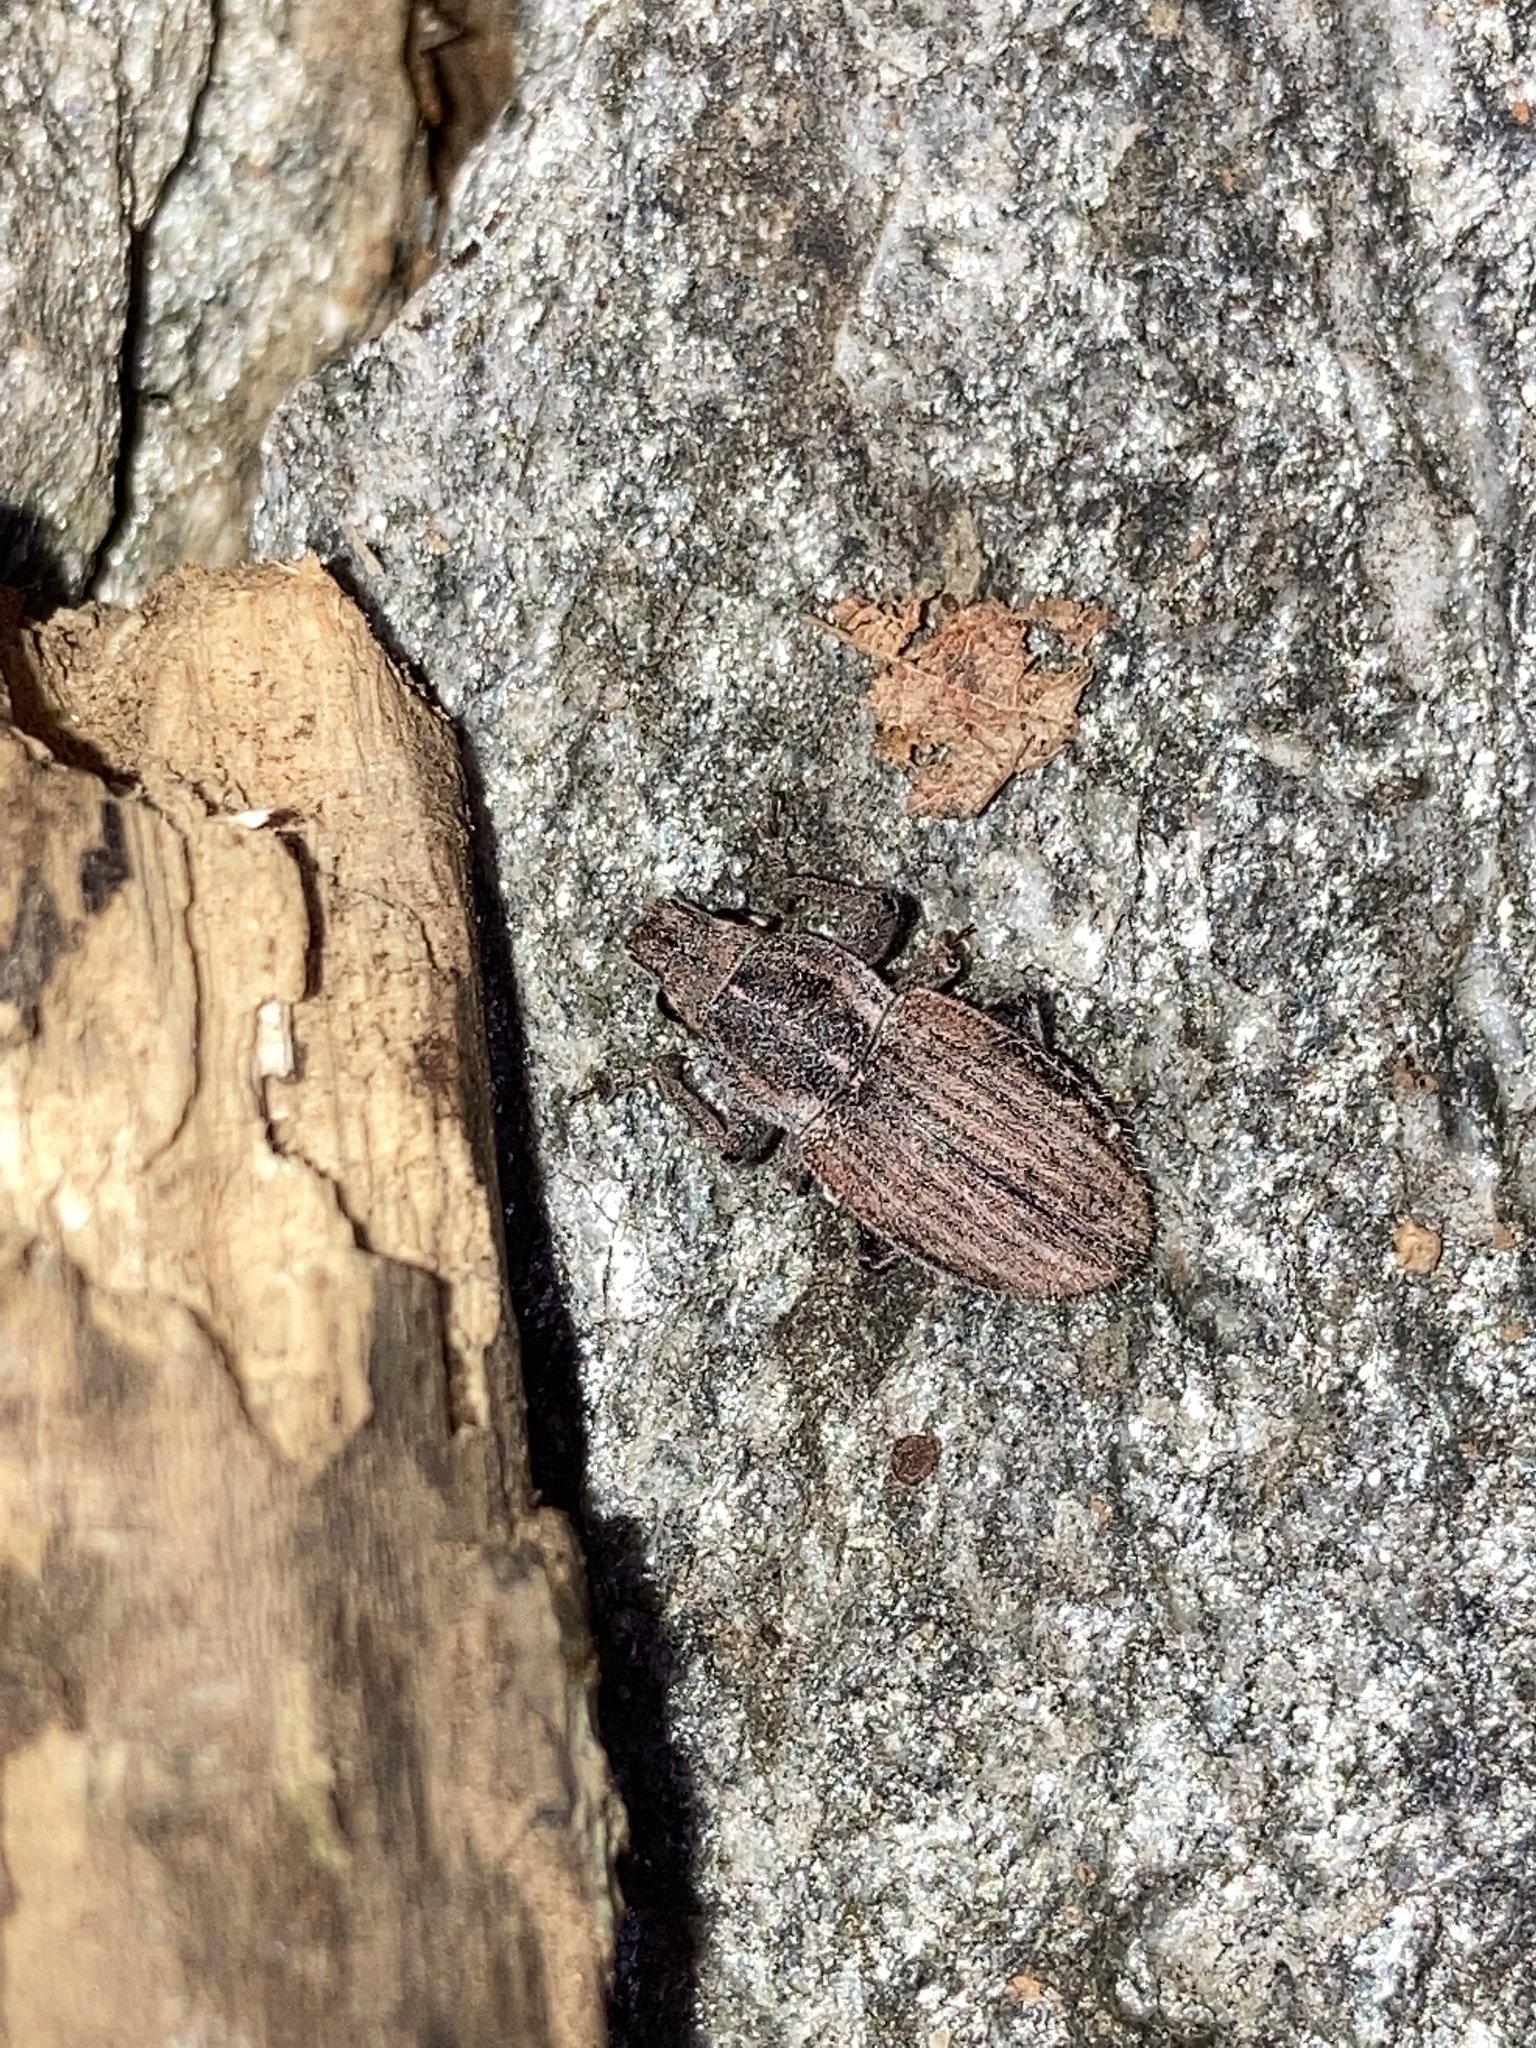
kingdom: Animalia
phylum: Arthropoda
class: Insecta
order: Coleoptera
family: Curculionidae
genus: Naupactus
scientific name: Naupactus leucoloma
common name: Whitefringed beetle
